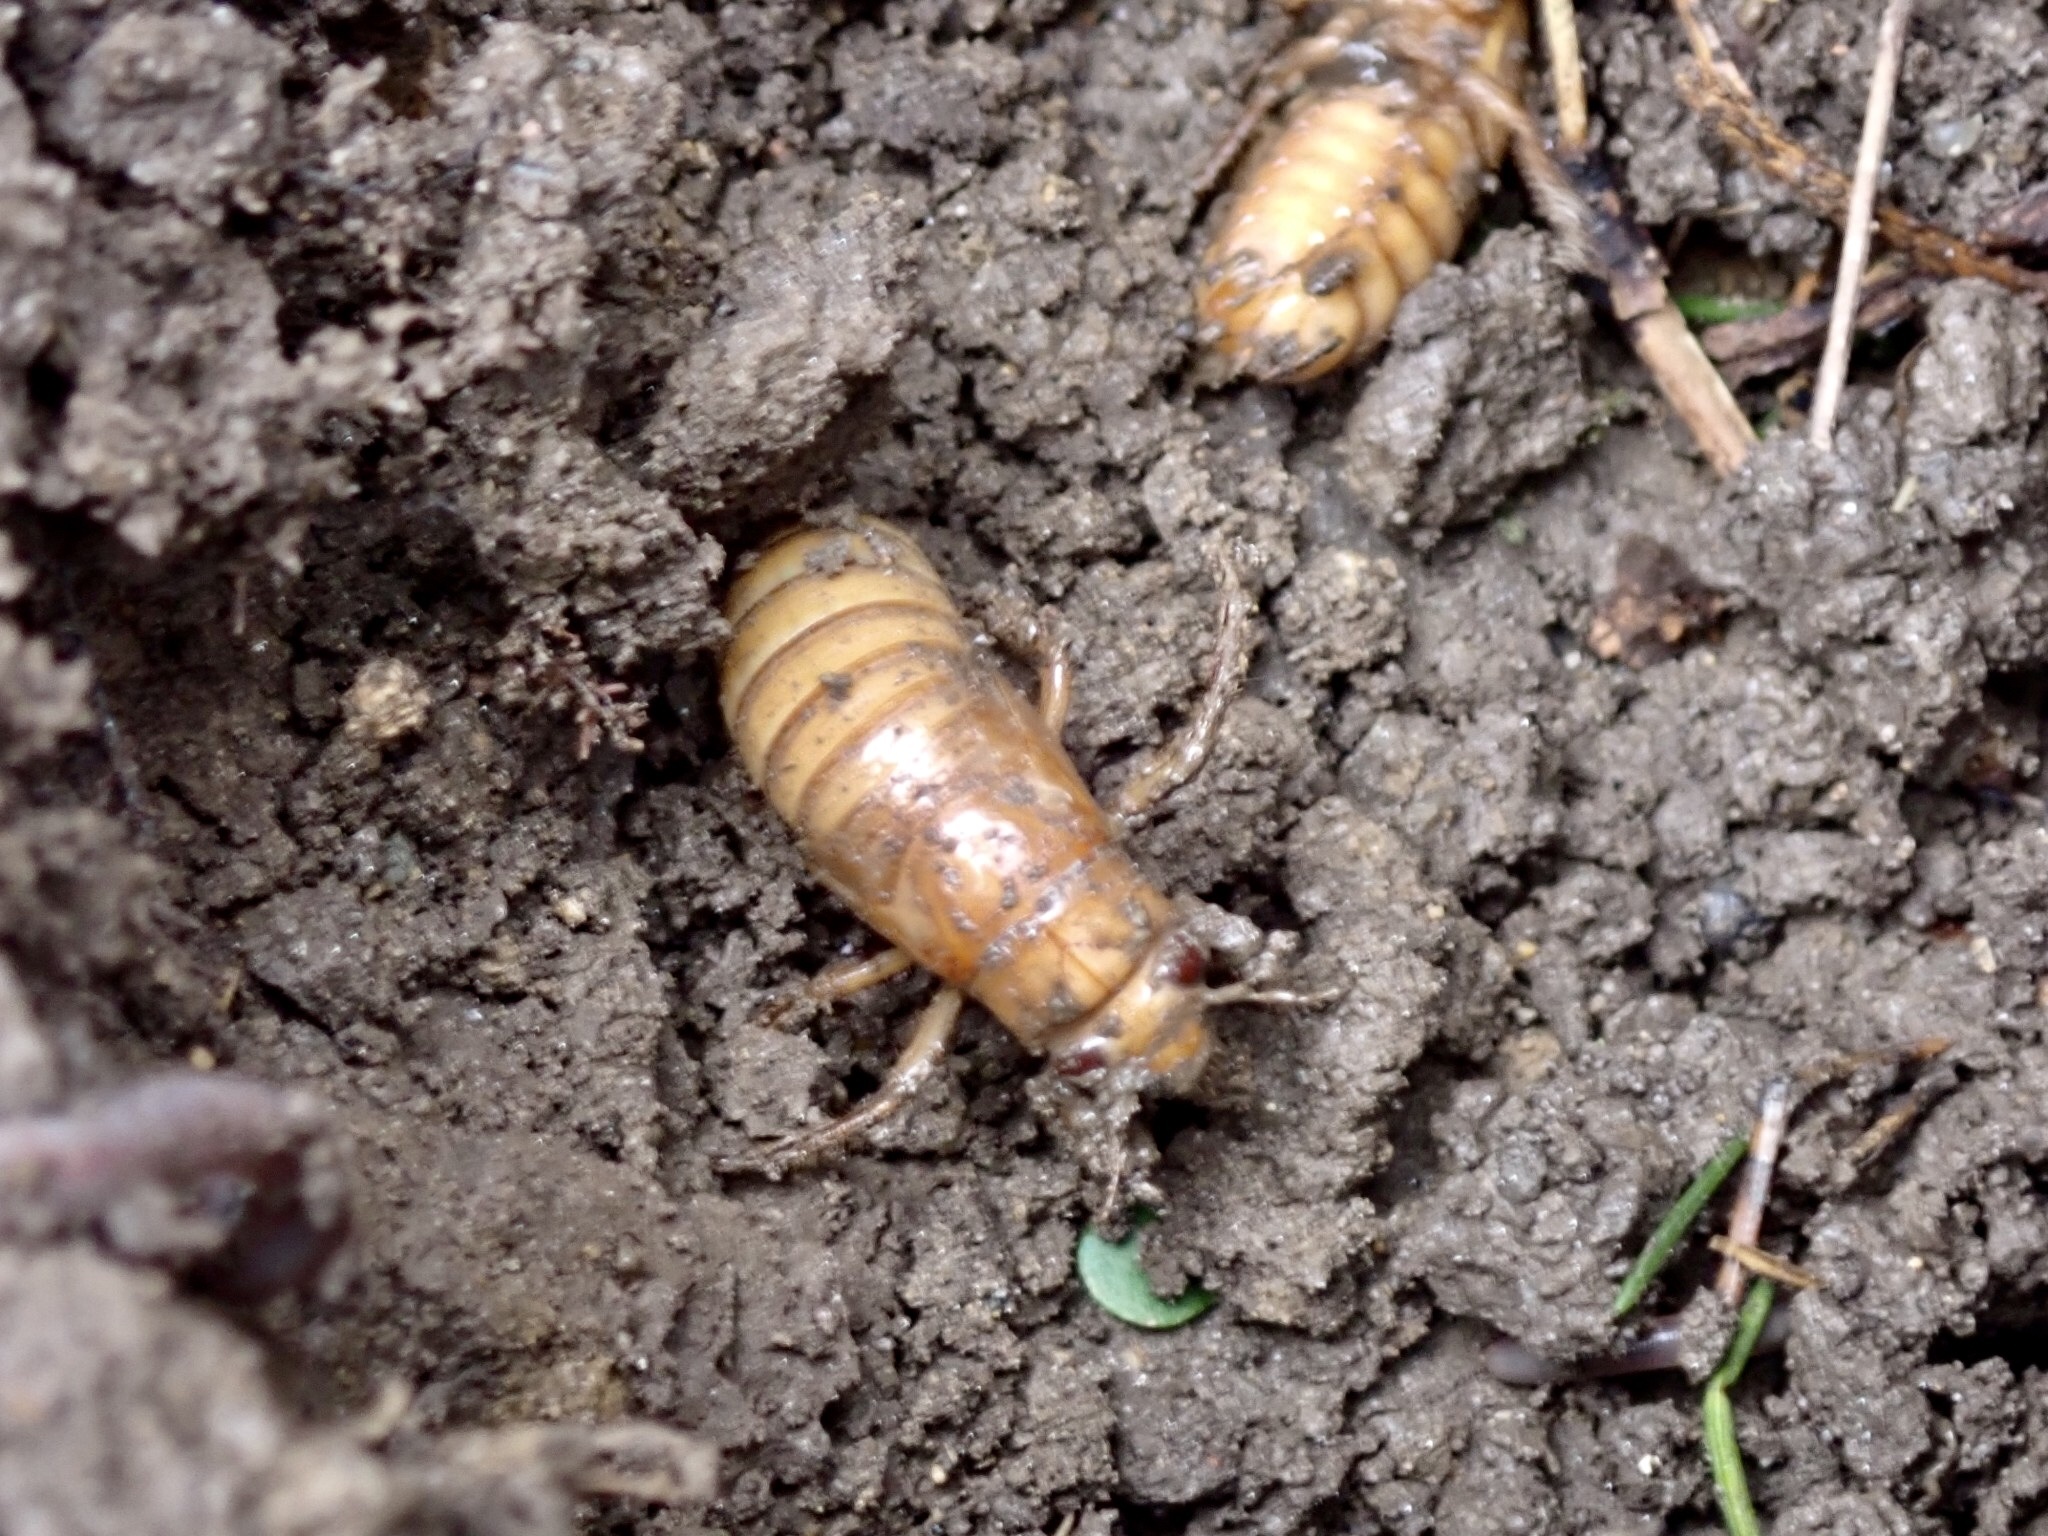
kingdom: Animalia
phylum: Arthropoda
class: Insecta
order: Hemiptera
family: Cicadidae
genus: Magicicada
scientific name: Magicicada
